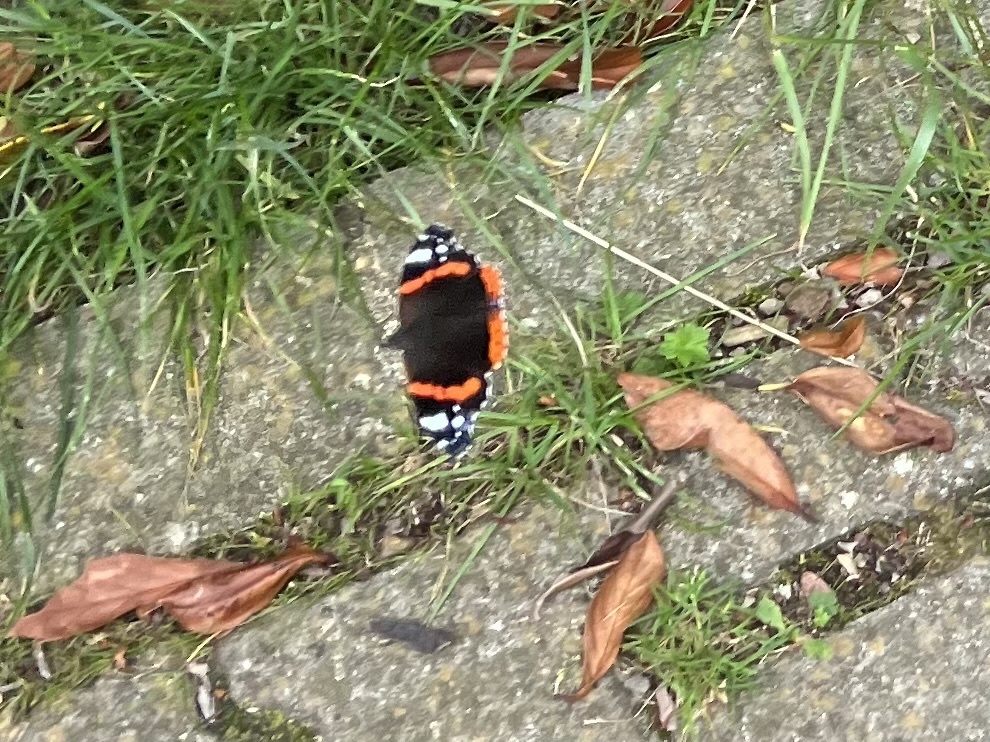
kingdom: Animalia
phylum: Arthropoda
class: Insecta
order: Lepidoptera
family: Nymphalidae
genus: Vanessa
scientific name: Vanessa atalanta
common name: Red admiral
